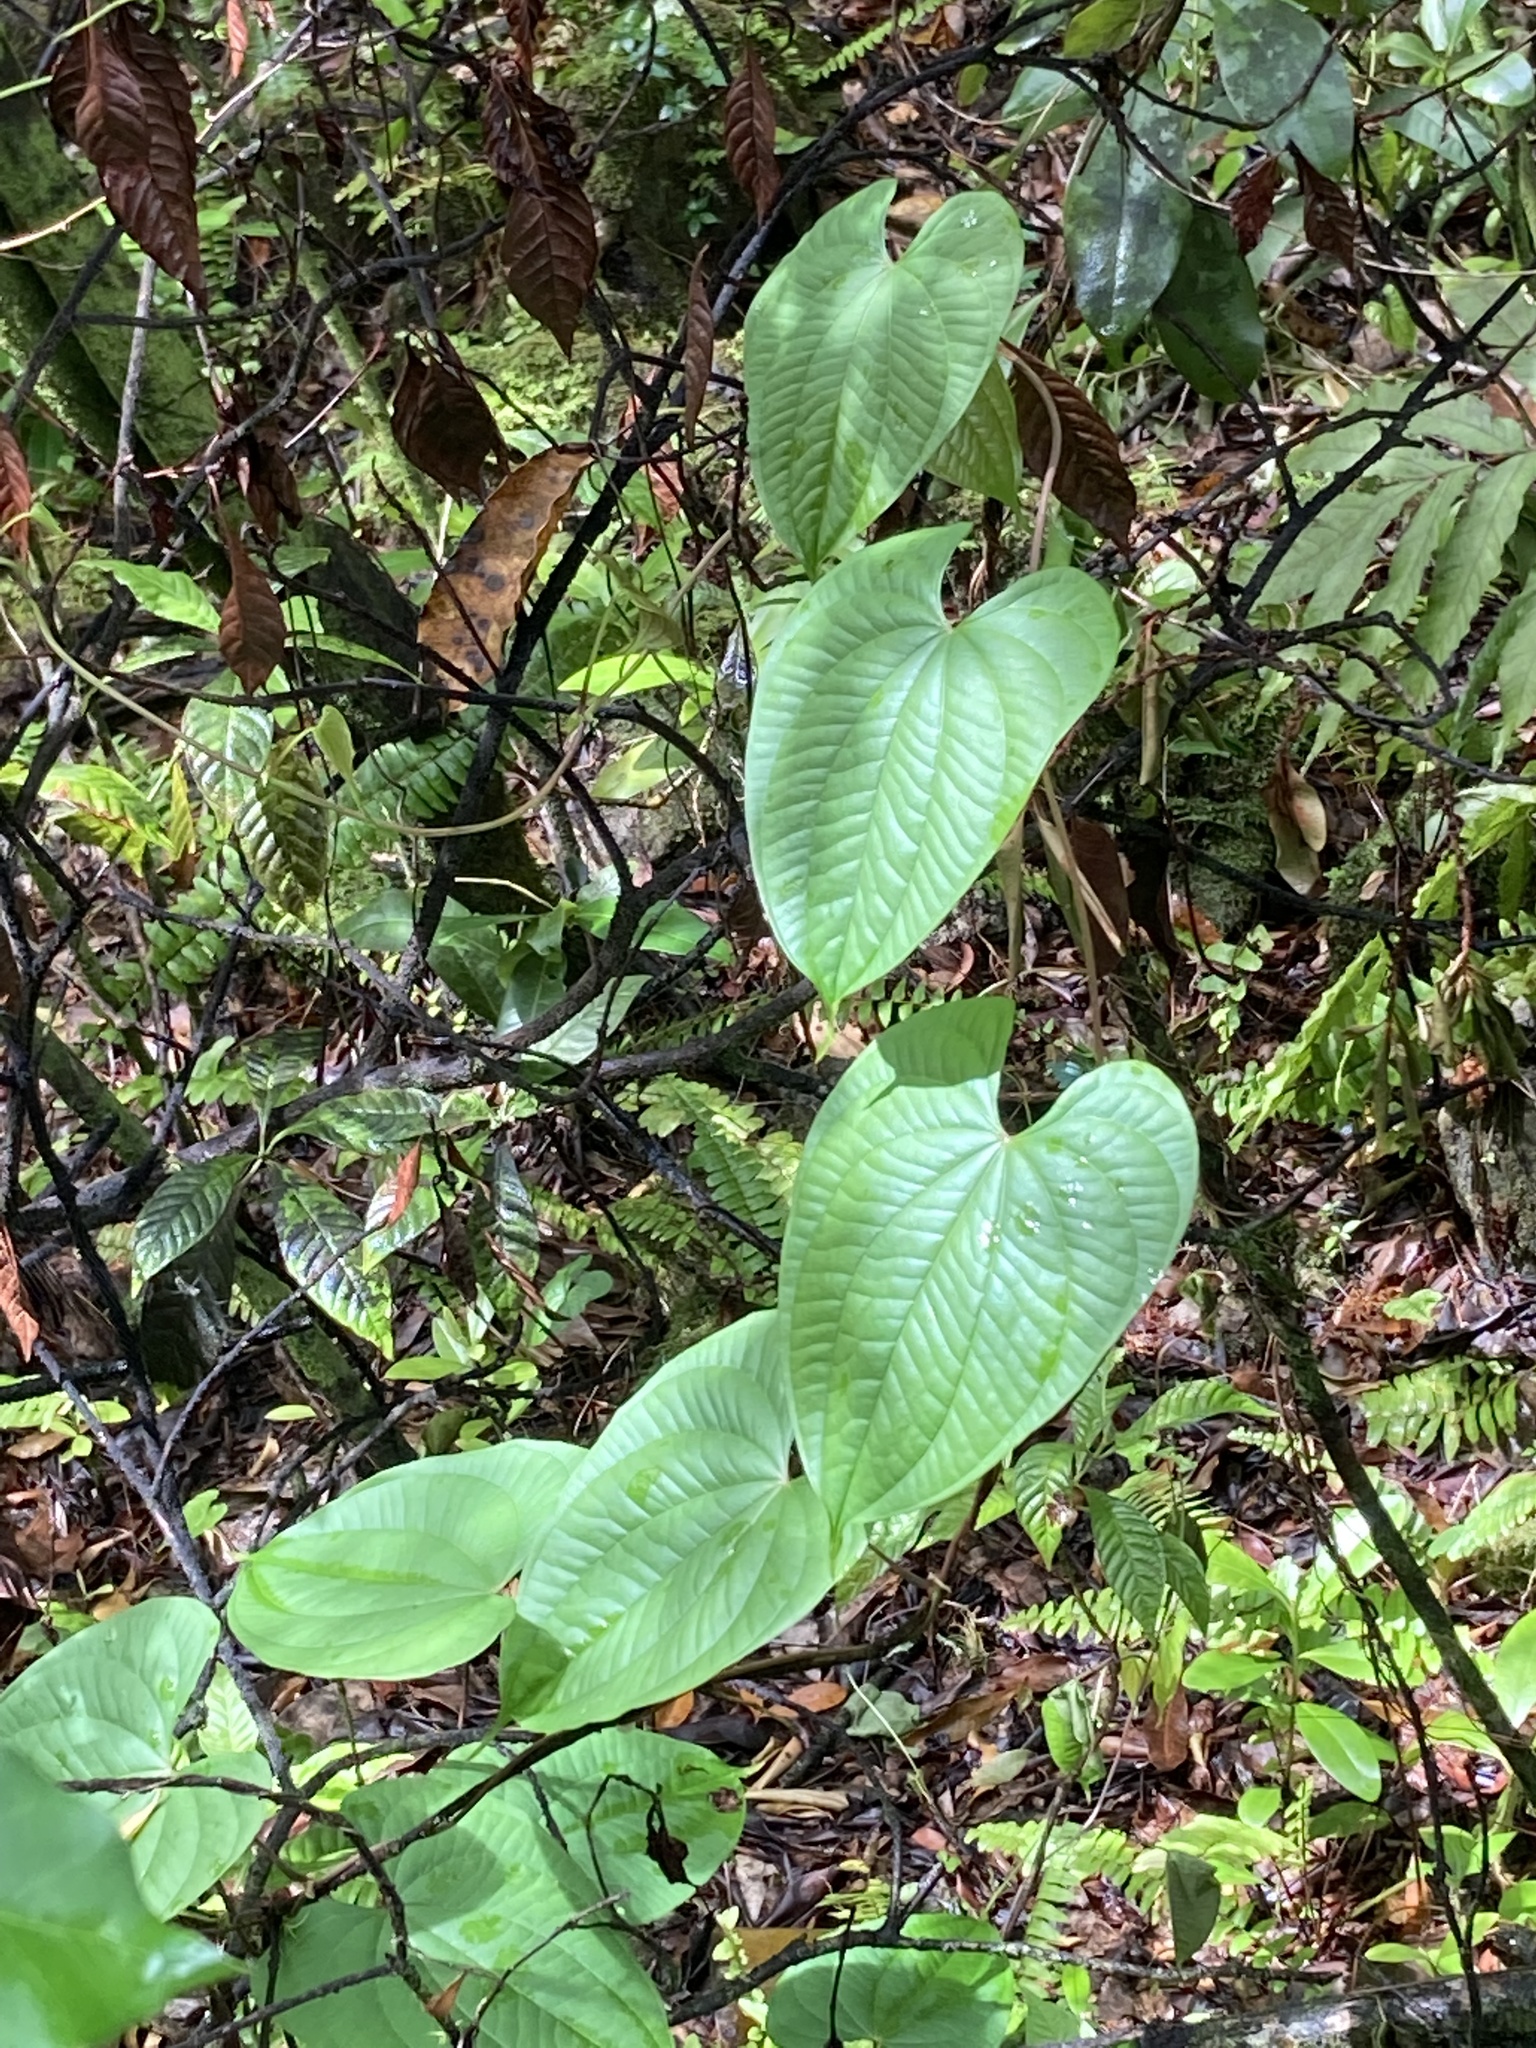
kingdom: Plantae
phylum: Tracheophyta
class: Liliopsida
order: Dioscoreales
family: Dioscoreaceae
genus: Dioscorea
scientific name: Dioscorea bulbifera
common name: Air yam
